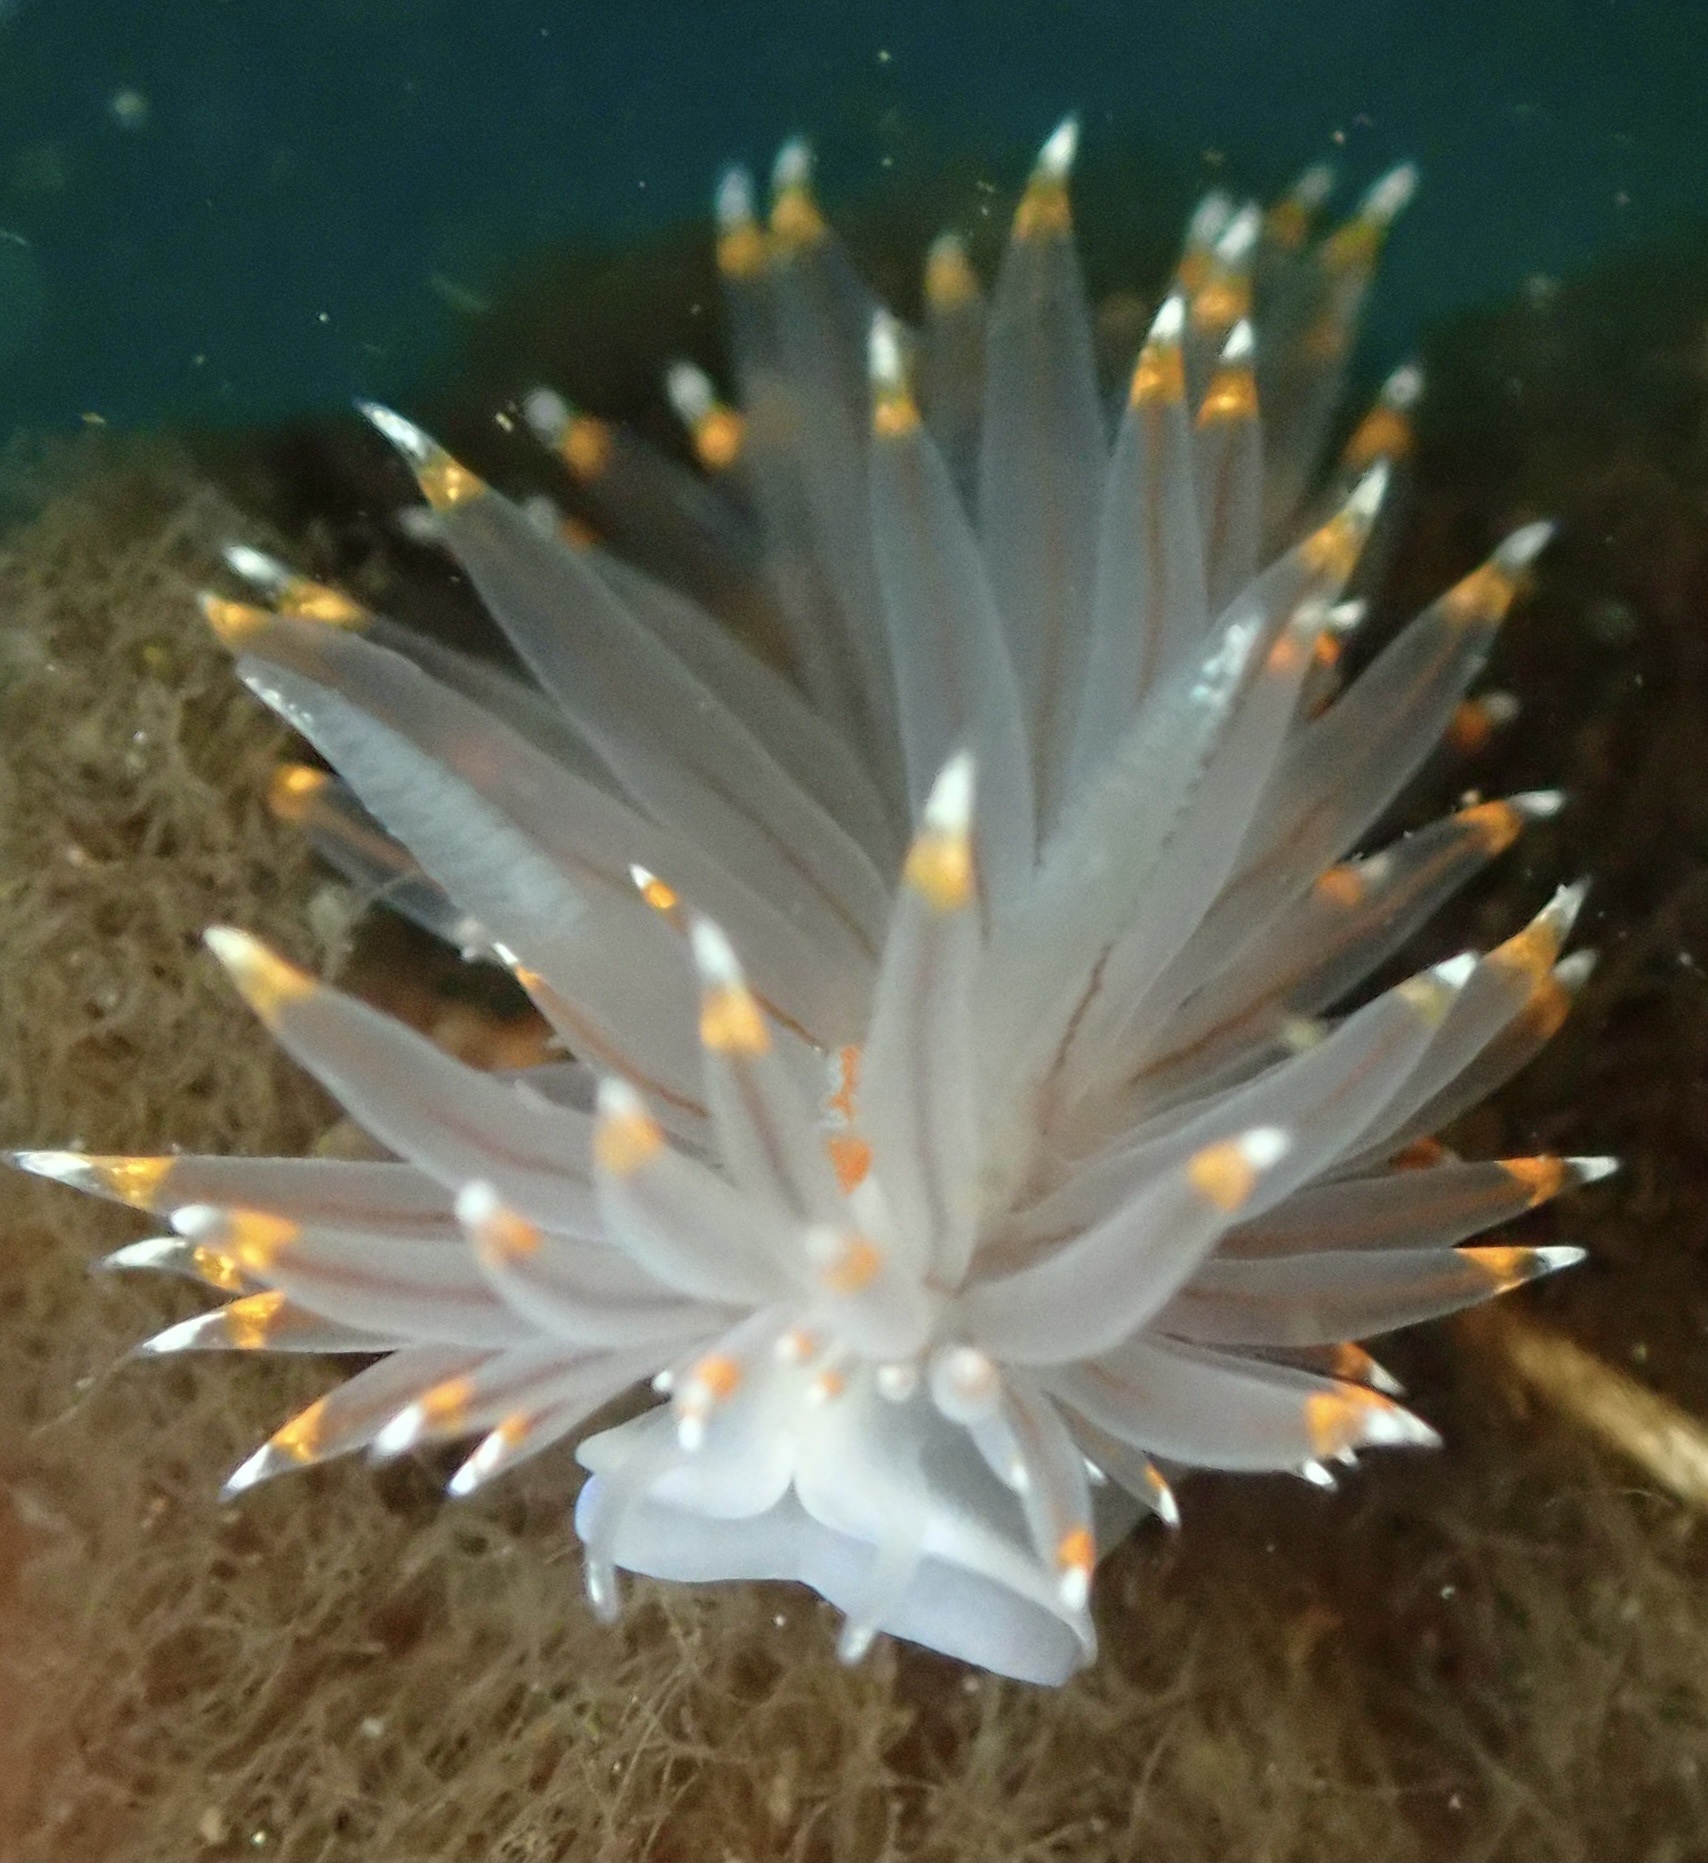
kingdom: Animalia
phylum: Mollusca
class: Gastropoda
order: Nudibranchia
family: Janolidae
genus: Antiopella
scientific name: Antiopella fusca
